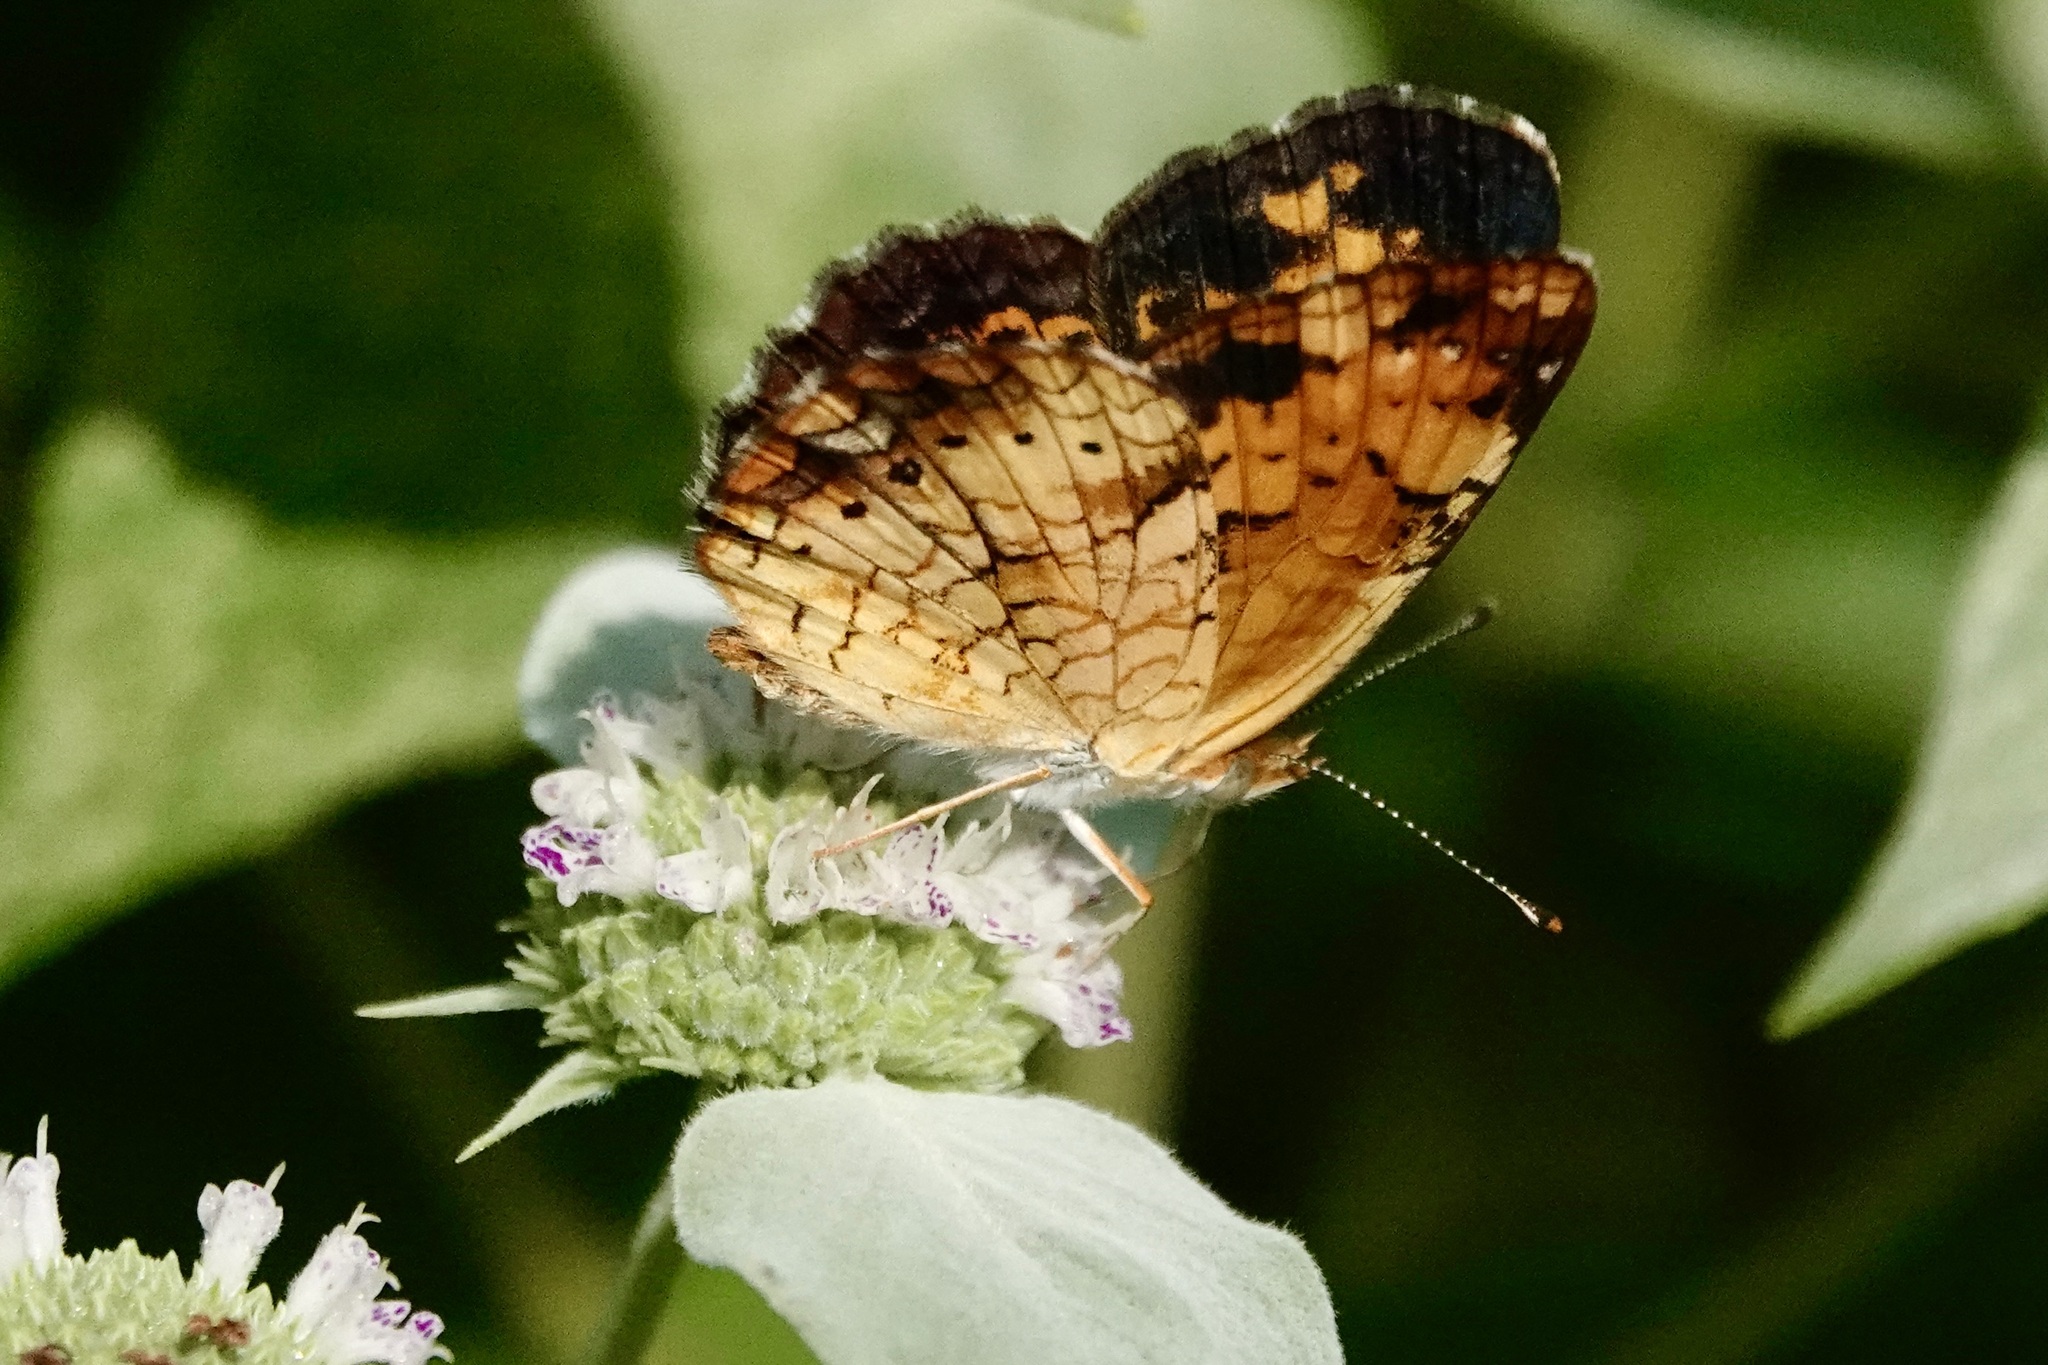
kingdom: Animalia
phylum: Arthropoda
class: Insecta
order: Lepidoptera
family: Nymphalidae
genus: Phyciodes
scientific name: Phyciodes tharos
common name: Pearl crescent
